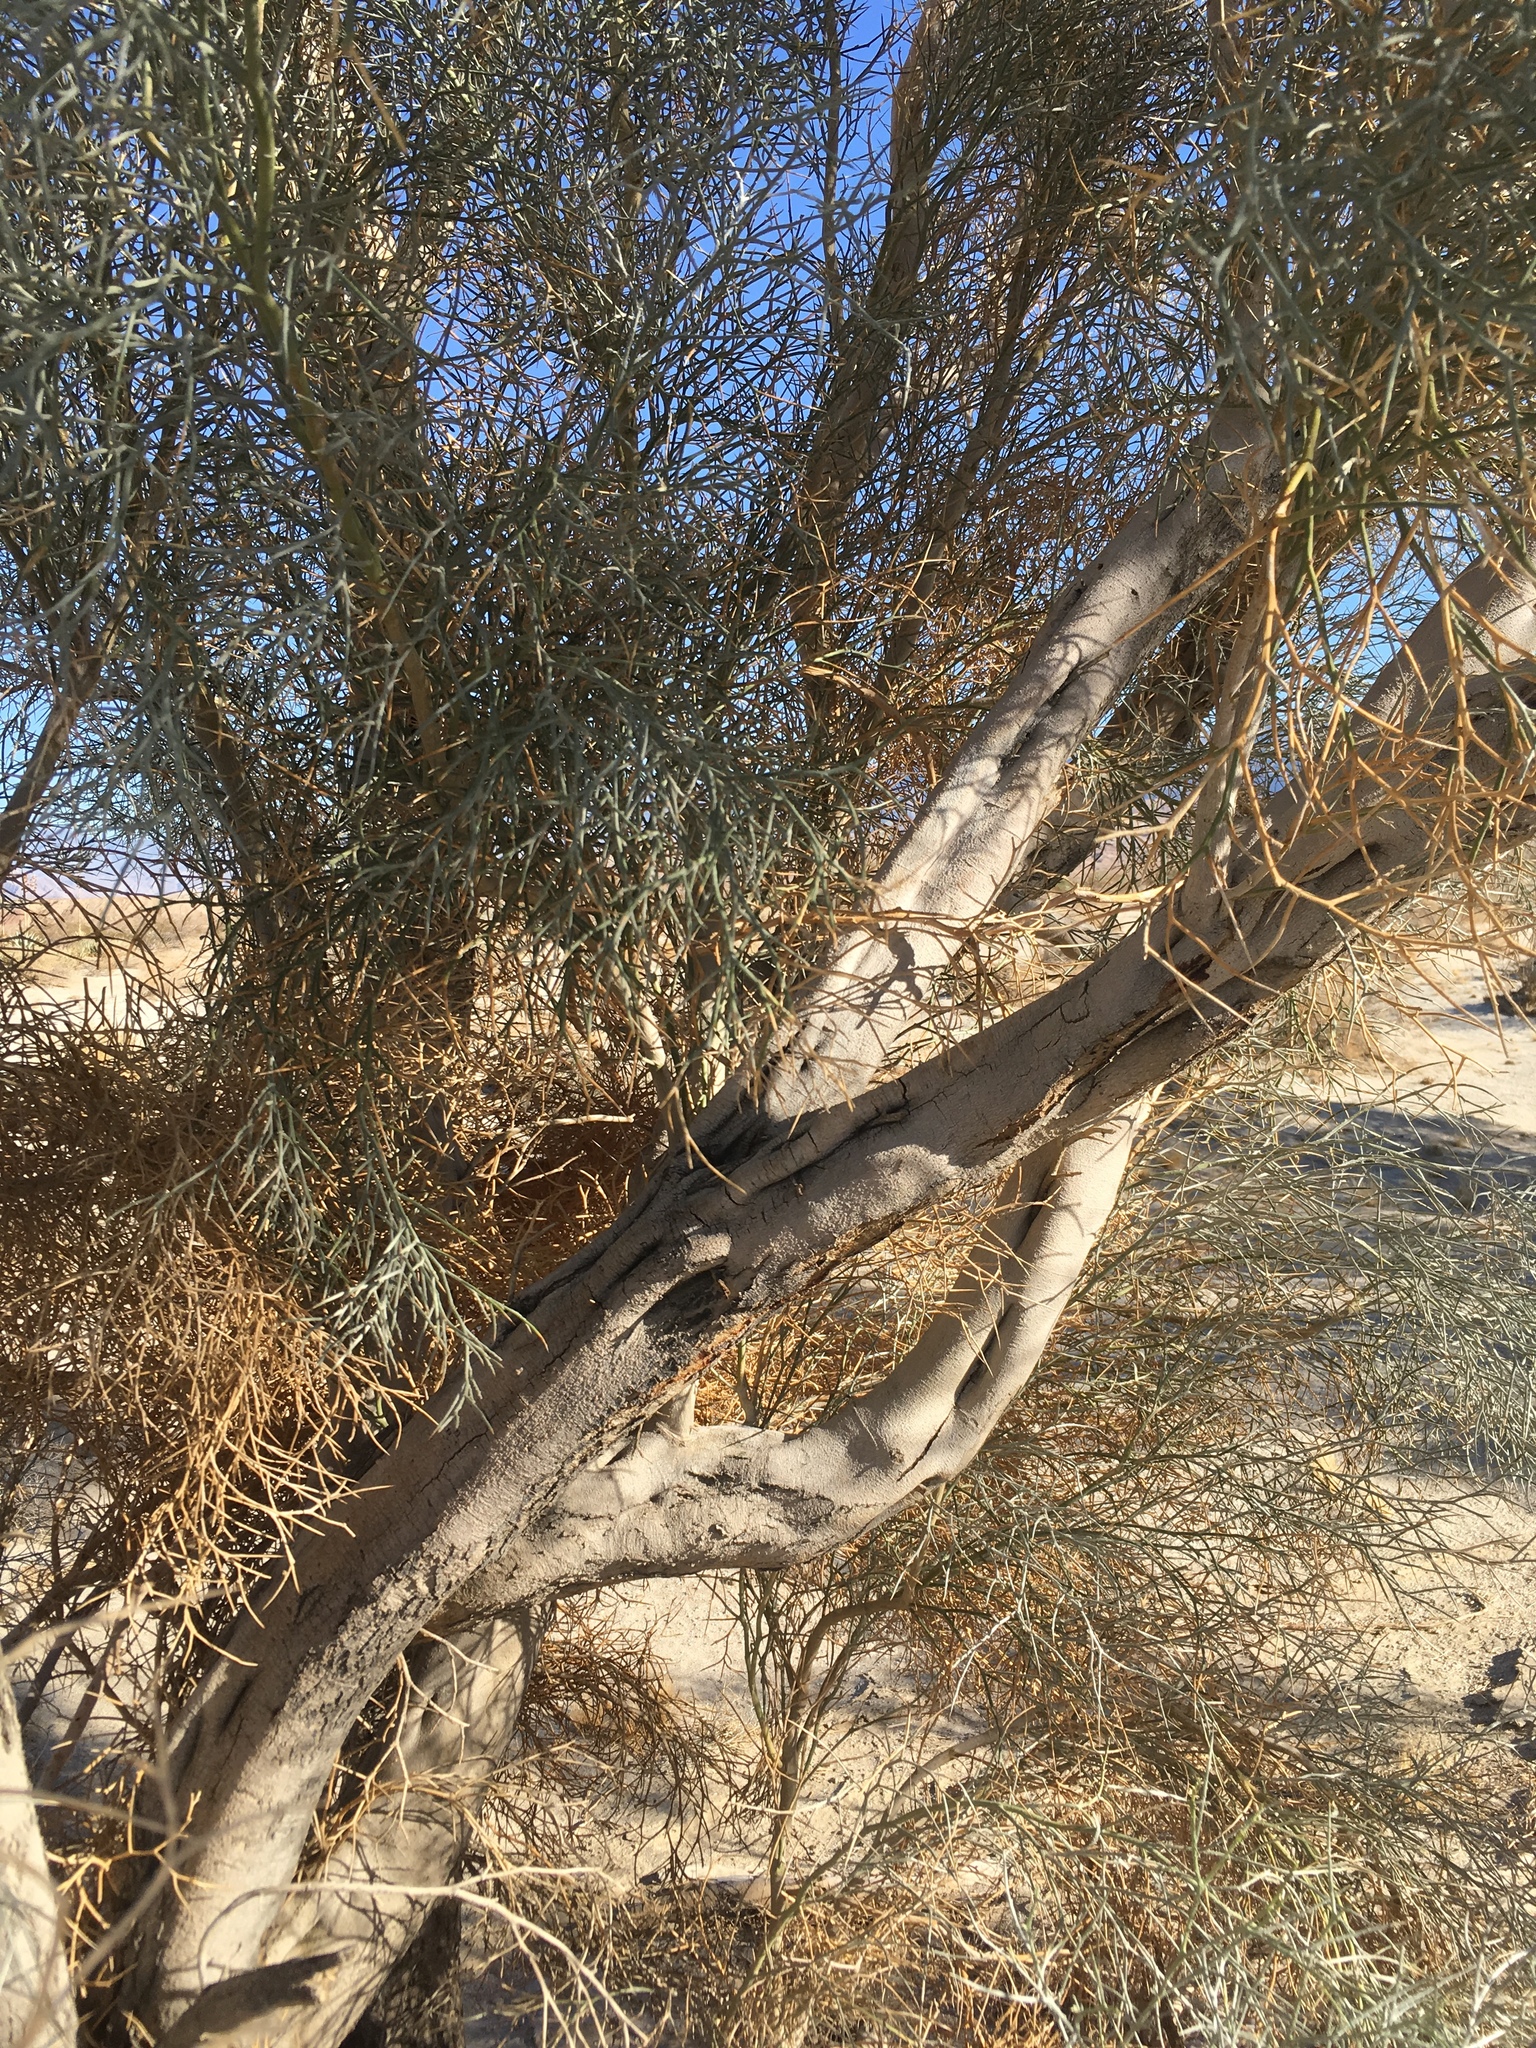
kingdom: Plantae
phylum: Tracheophyta
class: Magnoliopsida
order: Fabales
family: Fabaceae
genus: Psorothamnus
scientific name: Psorothamnus spinosus
